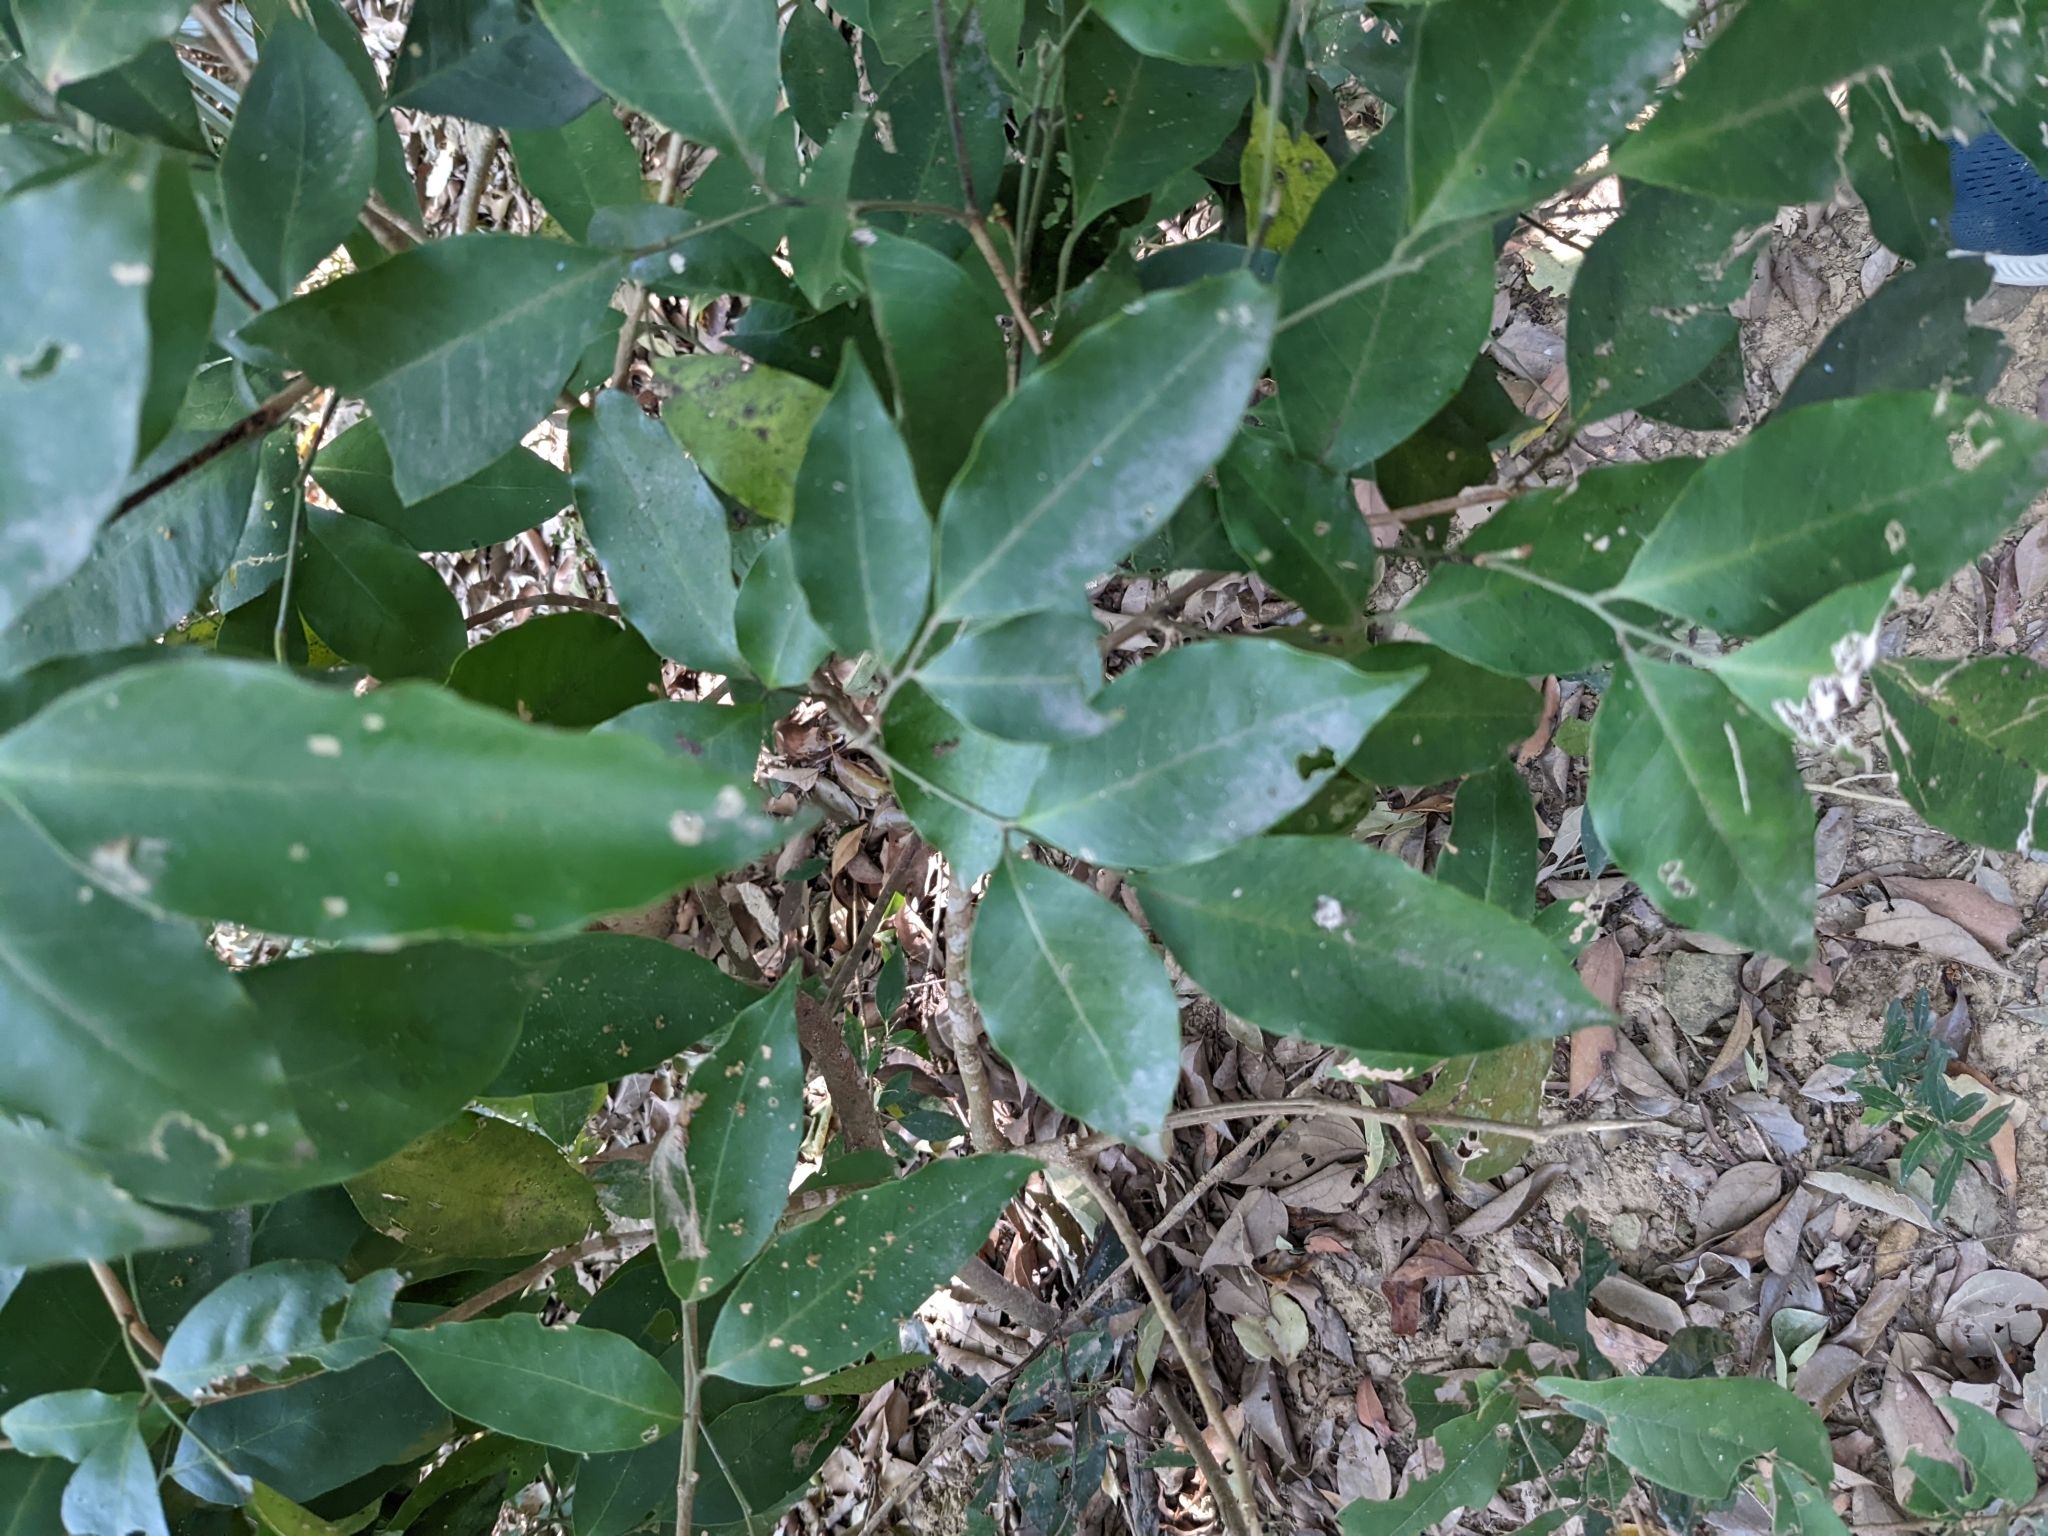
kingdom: Plantae
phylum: Tracheophyta
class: Magnoliopsida
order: Sapindales
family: Rutaceae
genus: Glycosmis
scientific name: Glycosmis parviflora
